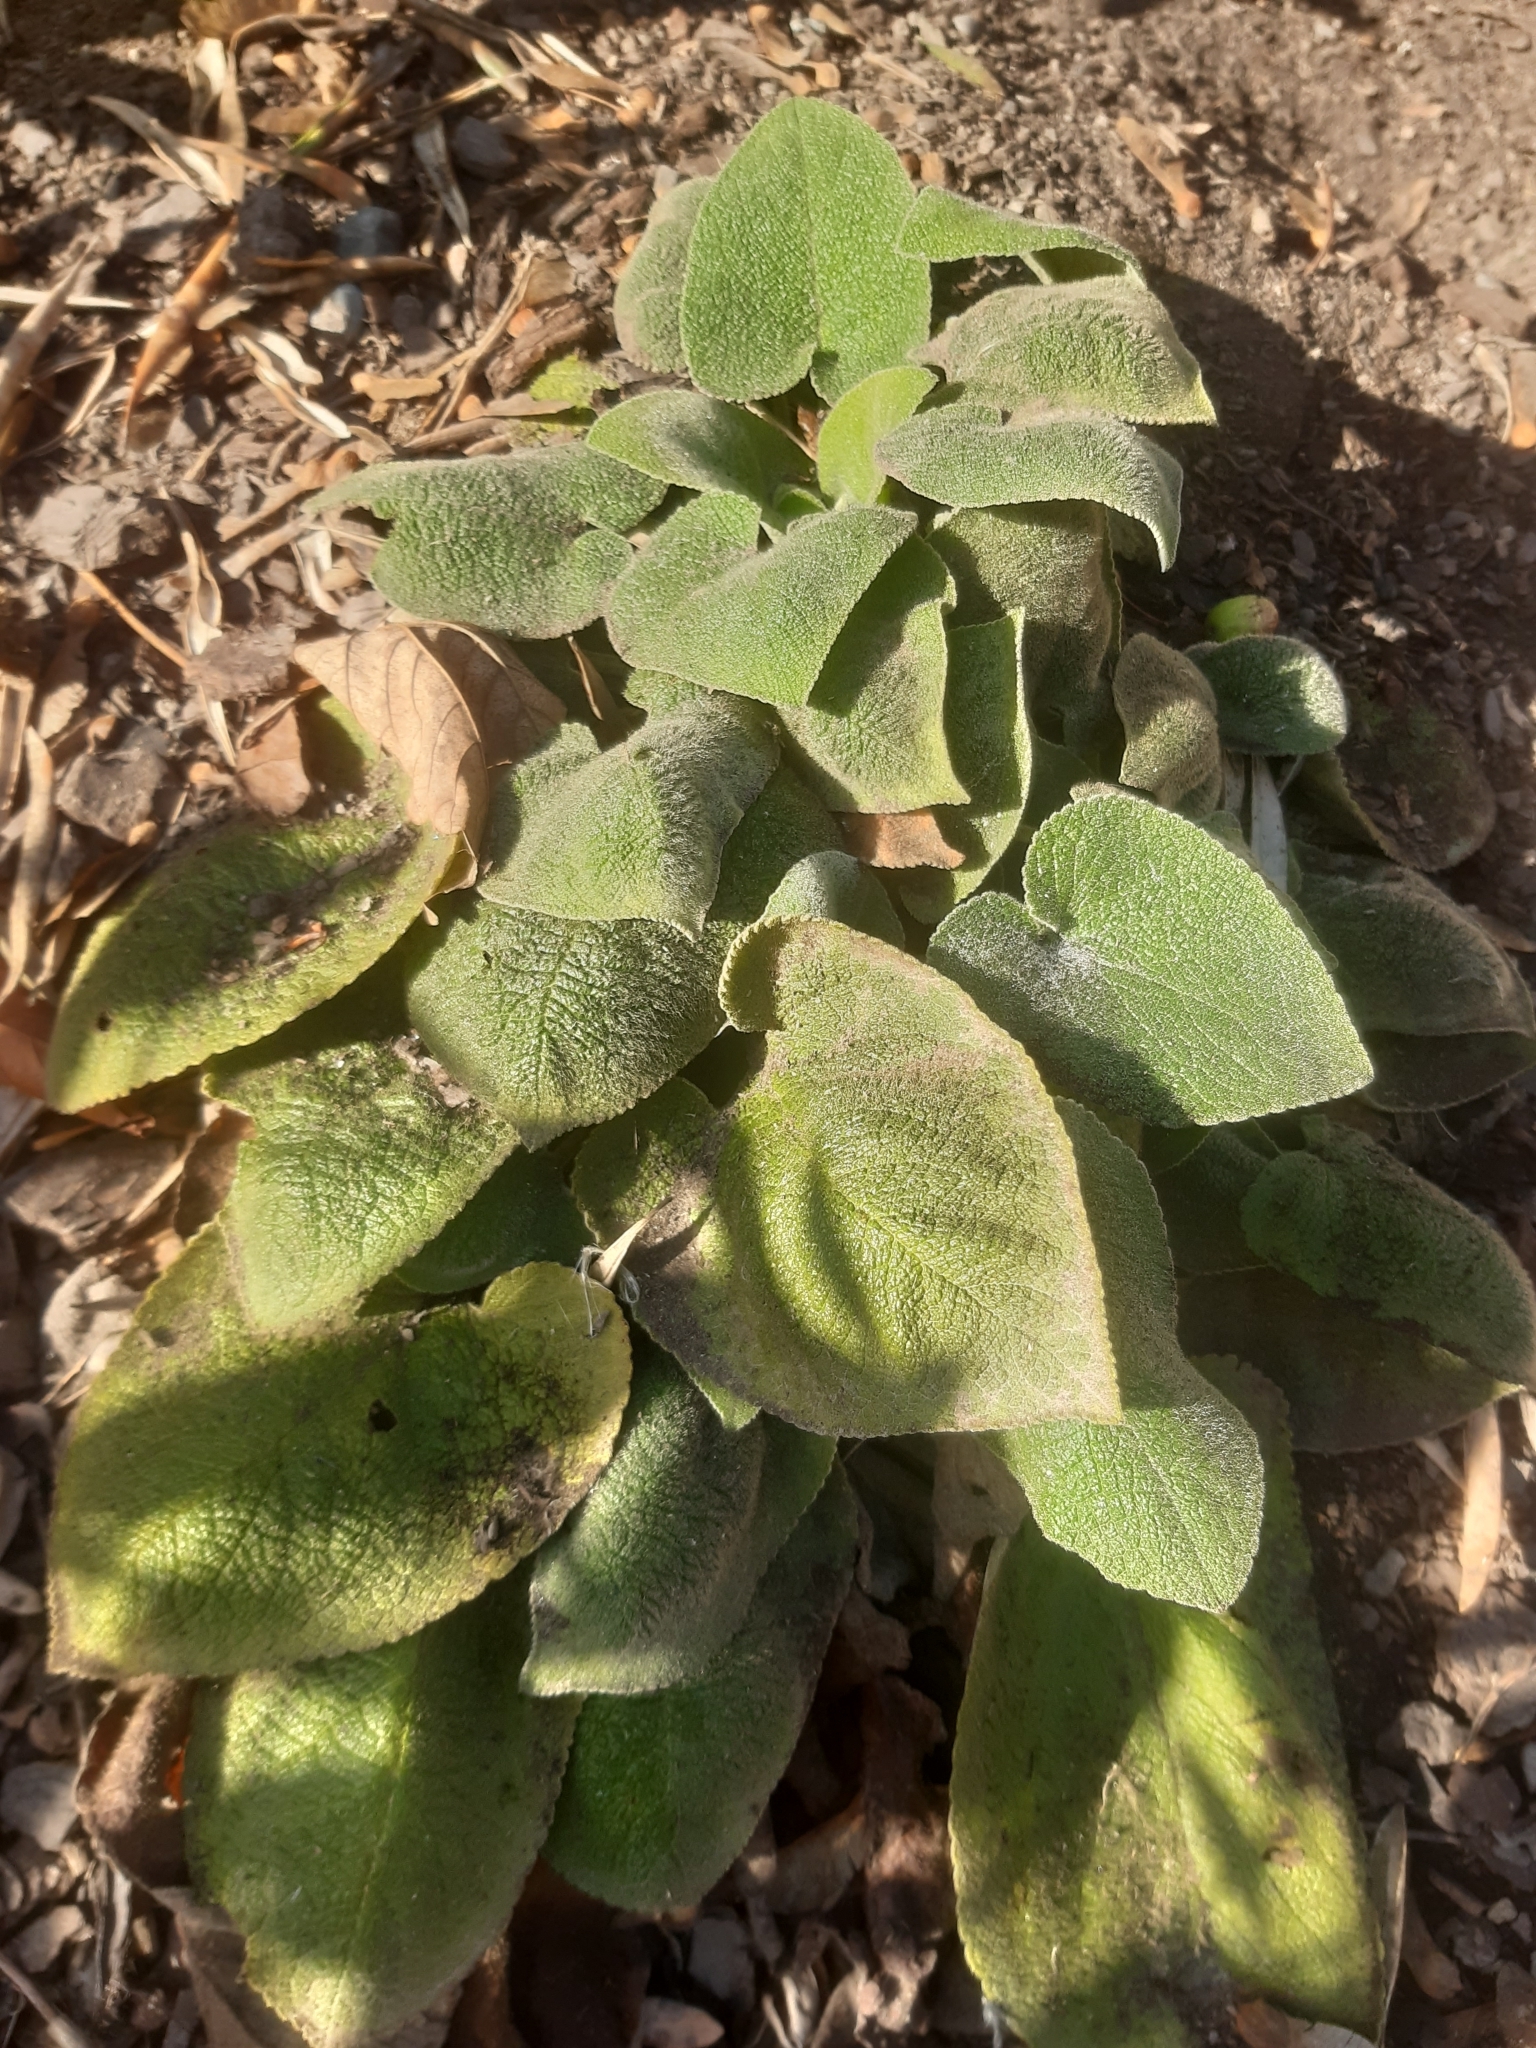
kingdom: Plantae
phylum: Tracheophyta
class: Magnoliopsida
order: Lamiales
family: Lamiaceae
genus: Phlomis
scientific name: Phlomis russeliana
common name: Turkish sage
